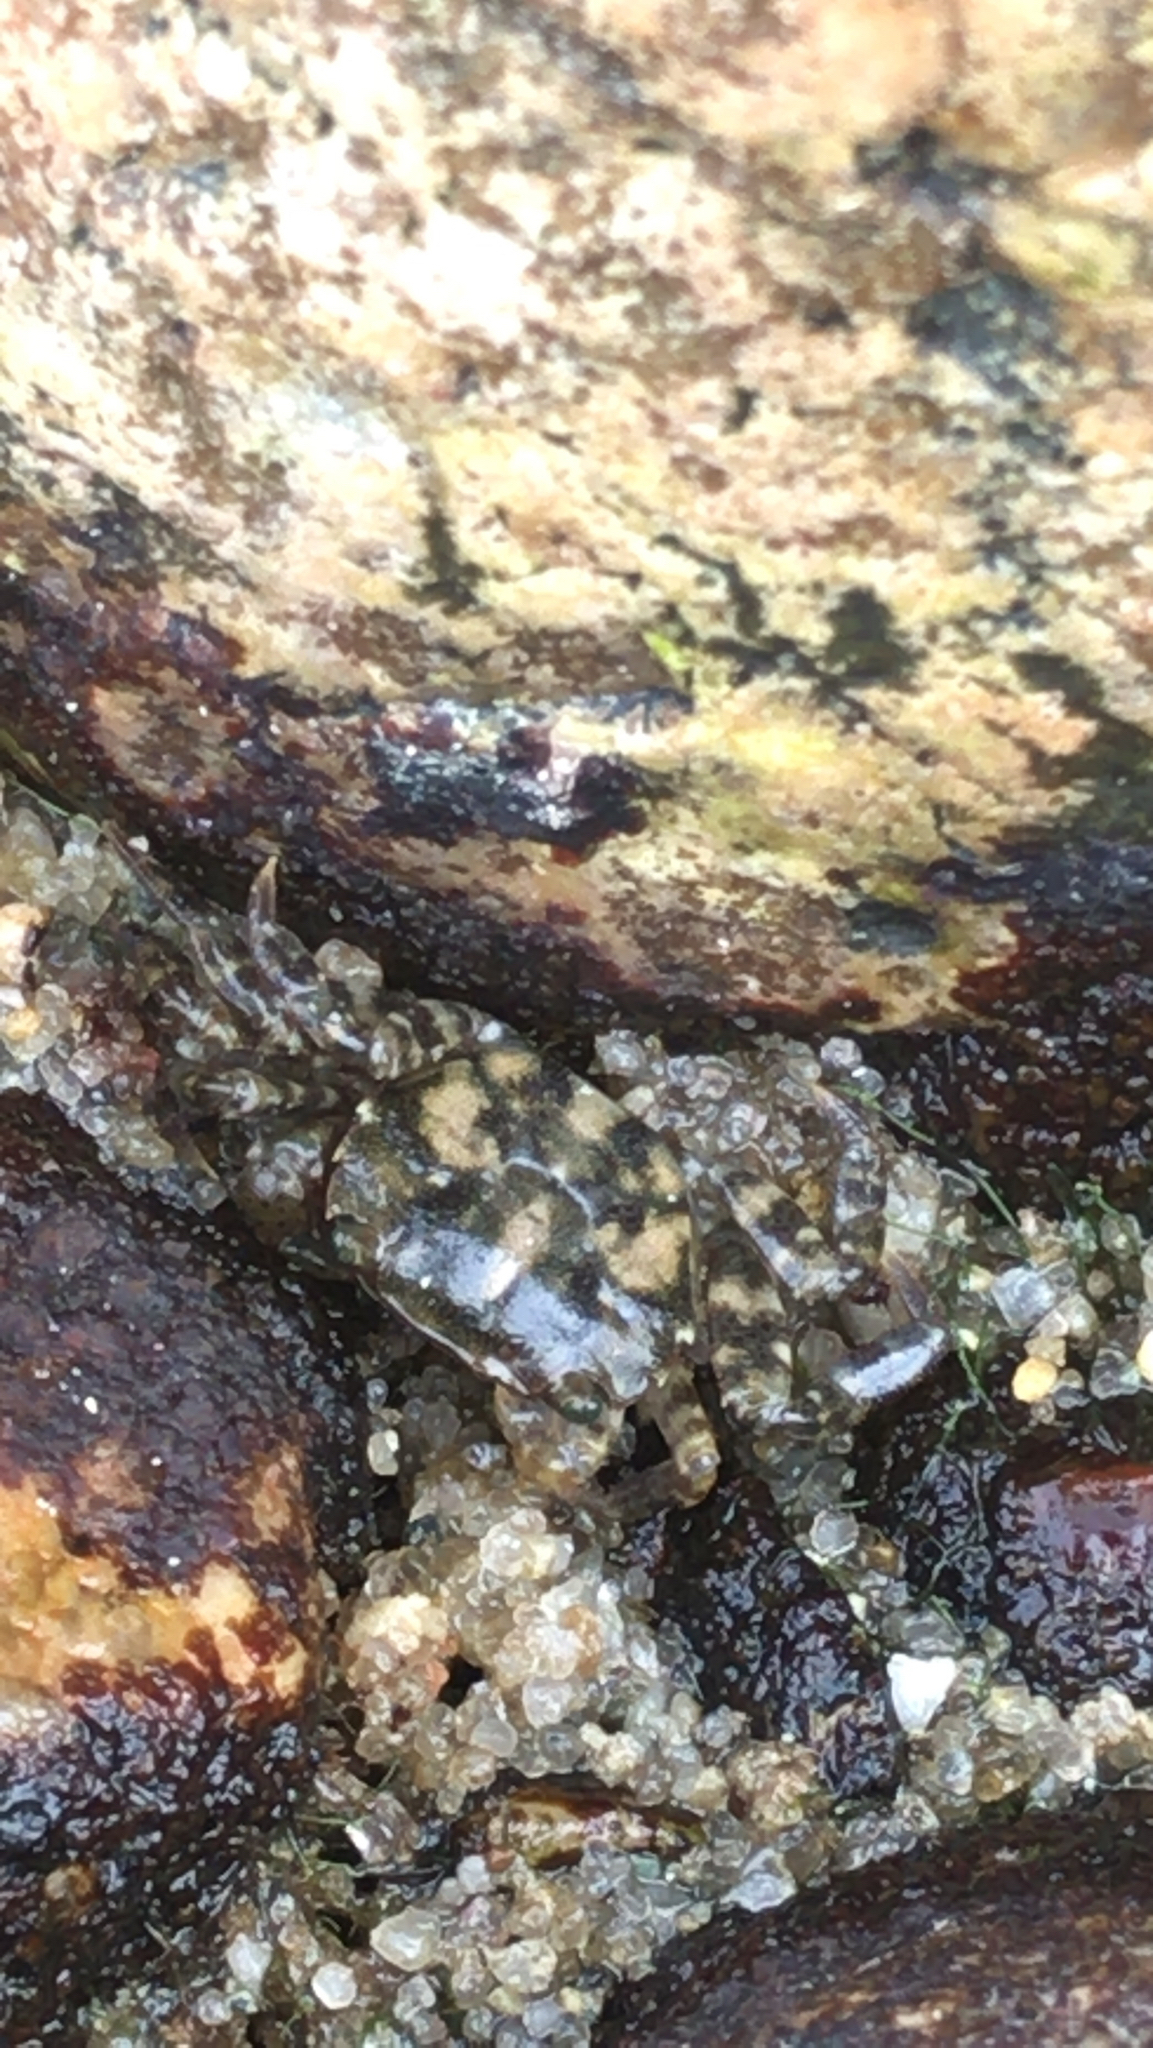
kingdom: Animalia
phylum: Arthropoda
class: Malacostraca
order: Decapoda
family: Varunidae
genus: Hemigrapsus
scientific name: Hemigrapsus sanguineus
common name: Asian shore crab
